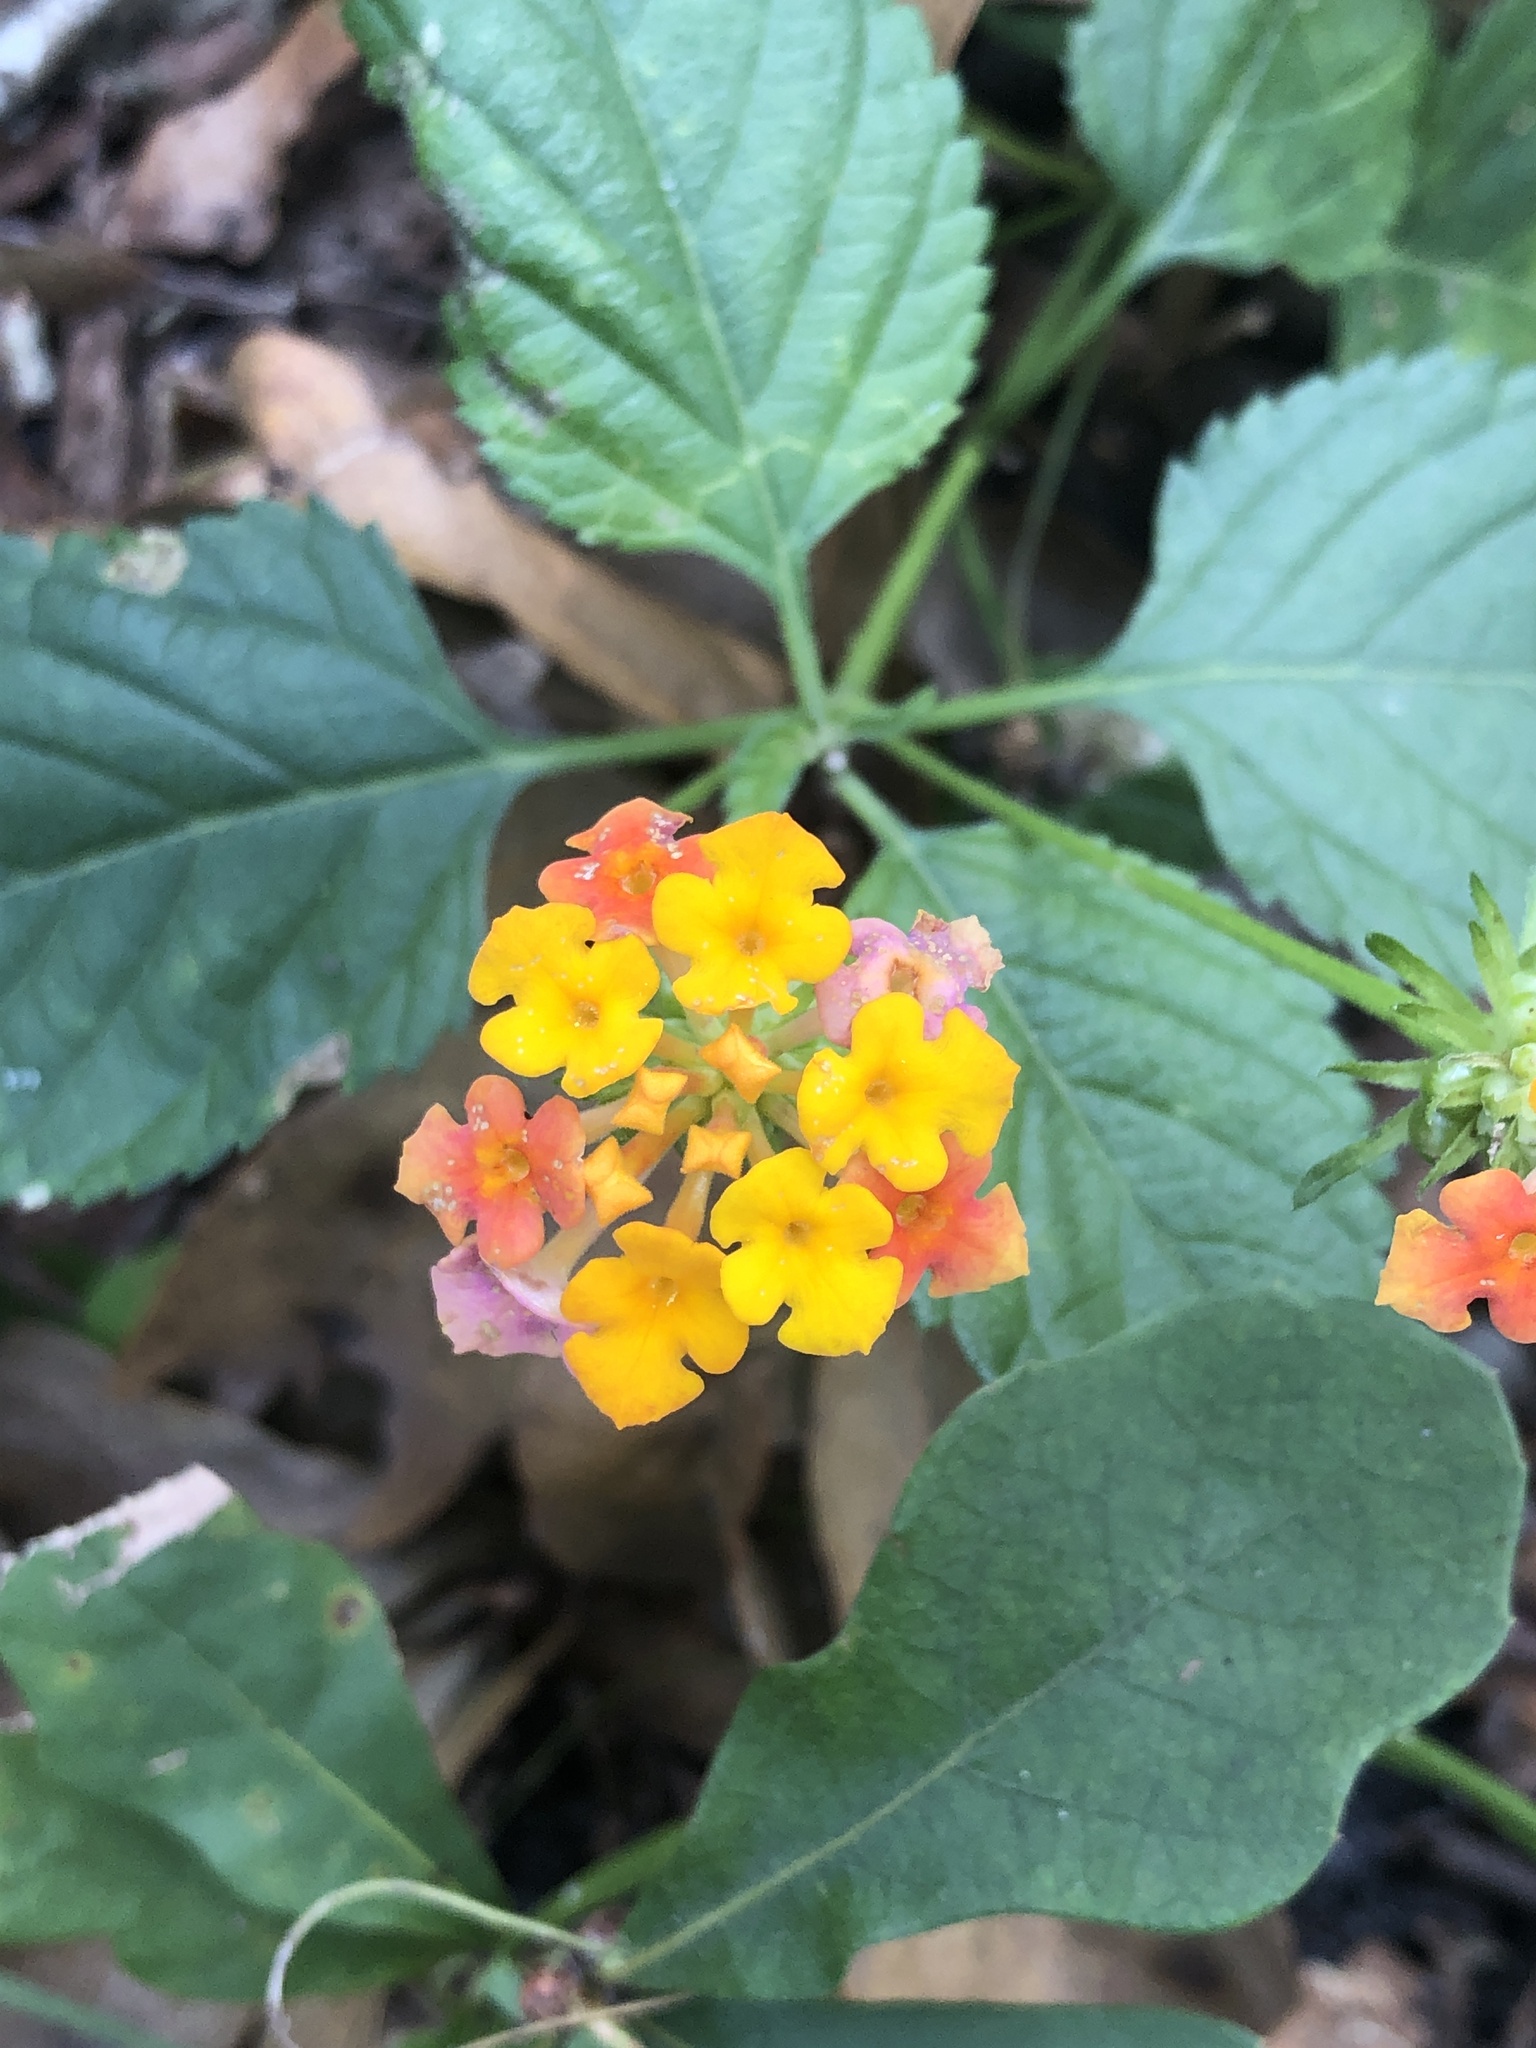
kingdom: Plantae
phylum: Tracheophyta
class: Magnoliopsida
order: Lamiales
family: Verbenaceae
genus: Lantana
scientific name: Lantana strigocamara
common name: Lantana
